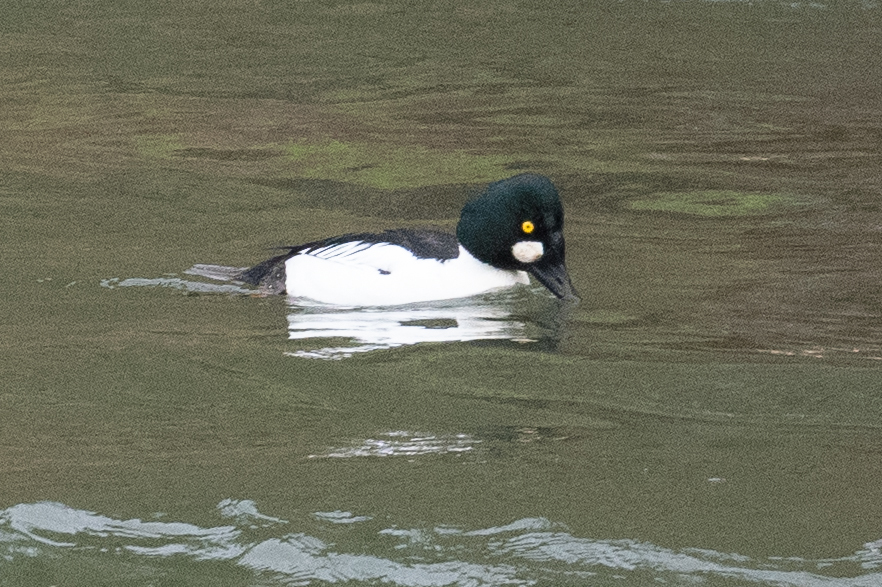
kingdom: Animalia
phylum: Chordata
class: Aves
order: Anseriformes
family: Anatidae
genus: Bucephala
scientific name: Bucephala clangula
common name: Common goldeneye
